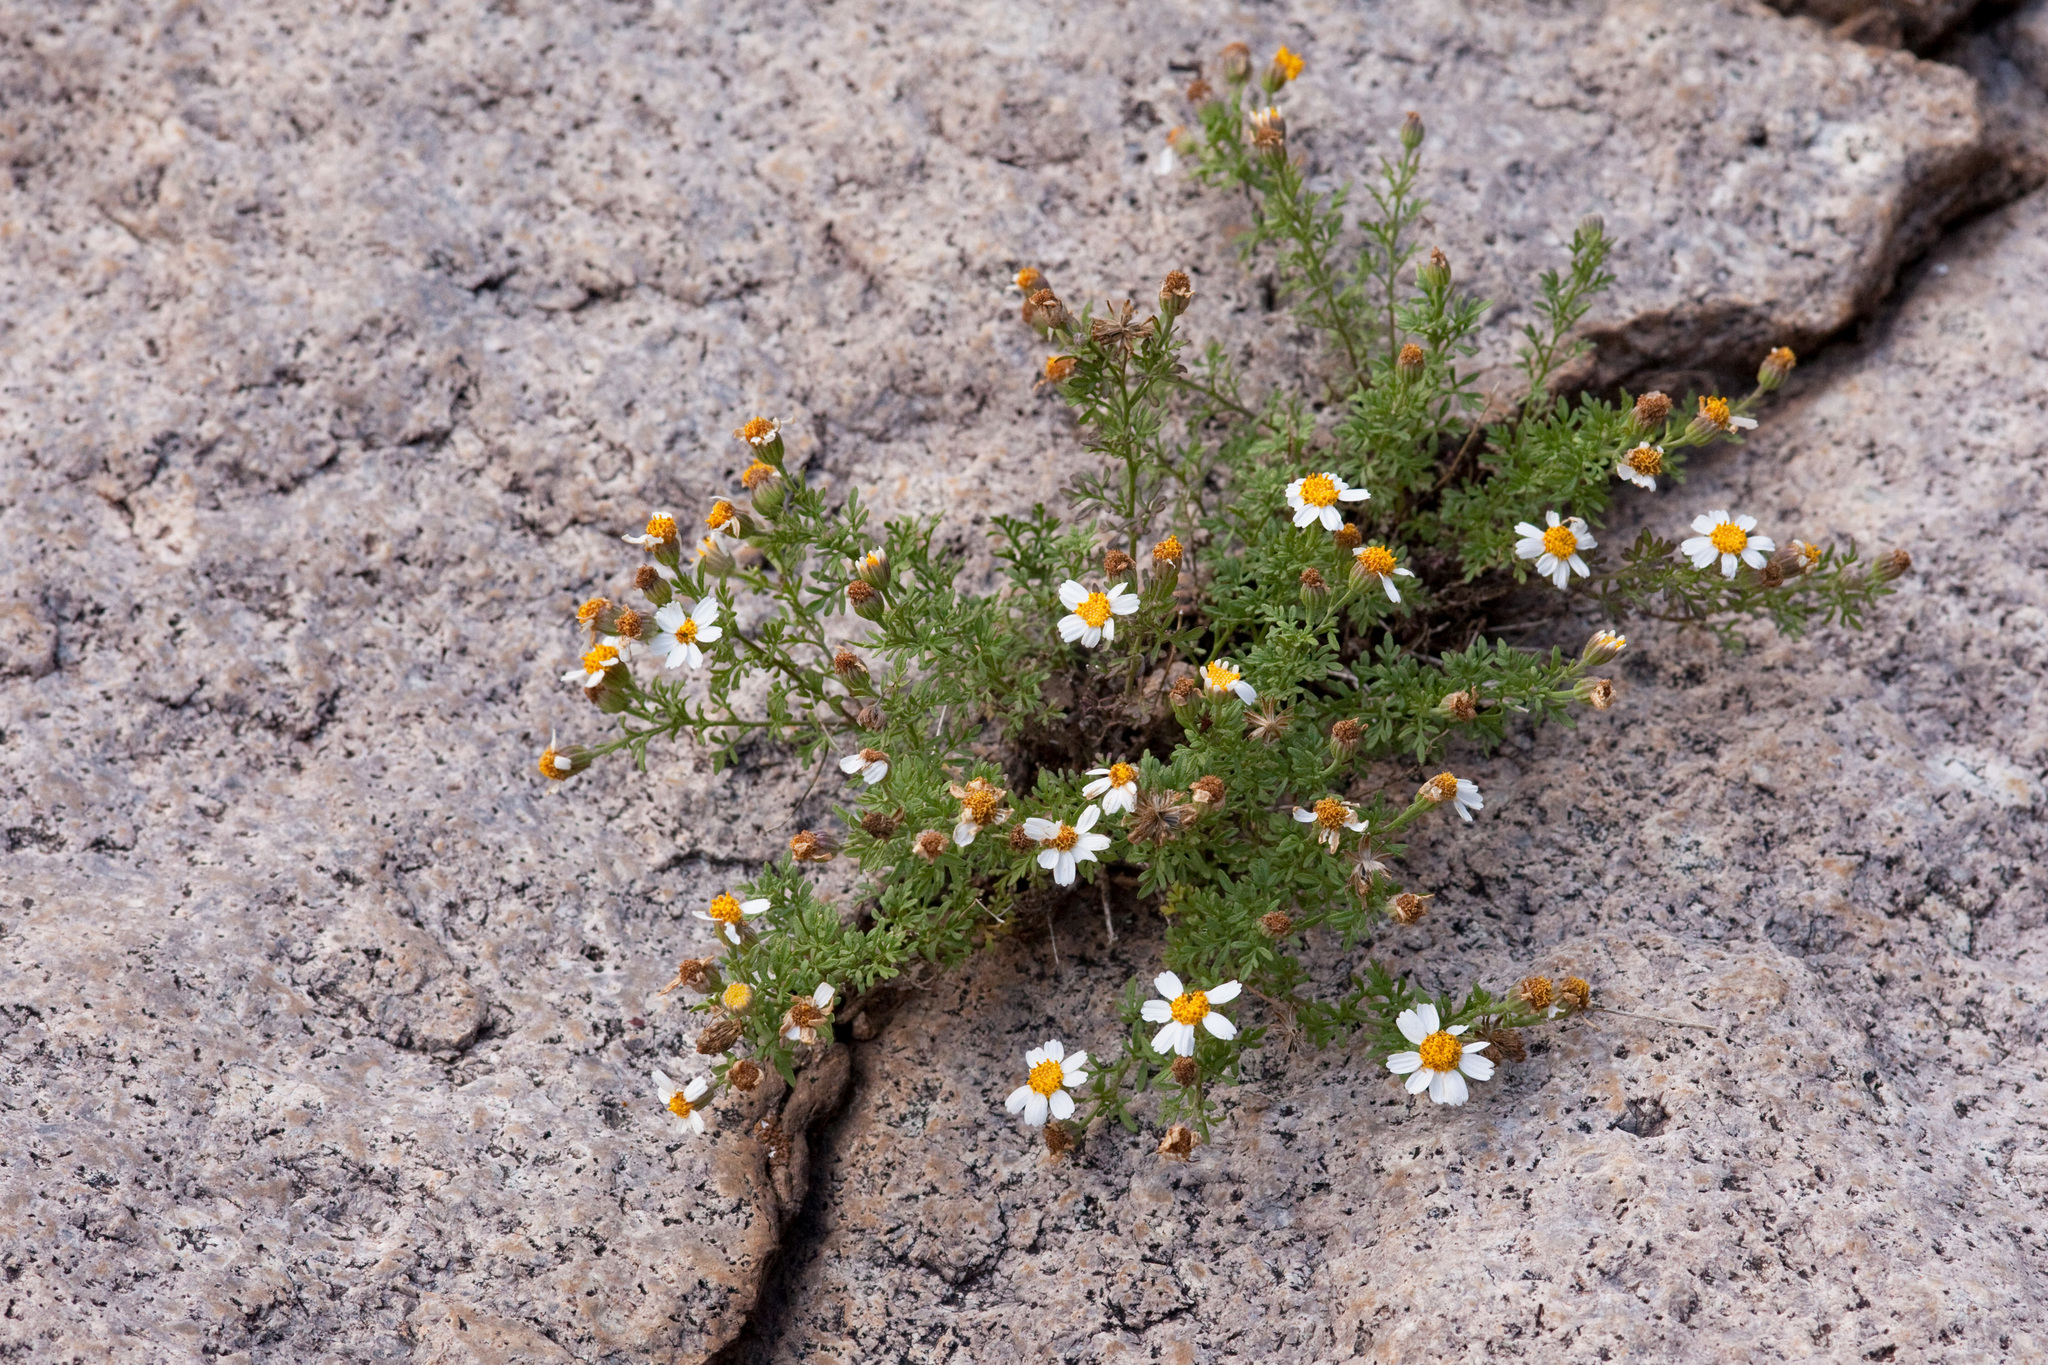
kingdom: Plantae
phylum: Tracheophyta
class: Magnoliopsida
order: Asterales
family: Asteraceae
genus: Galinsogeopsis
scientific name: Galinsogeopsis coronopifolia
